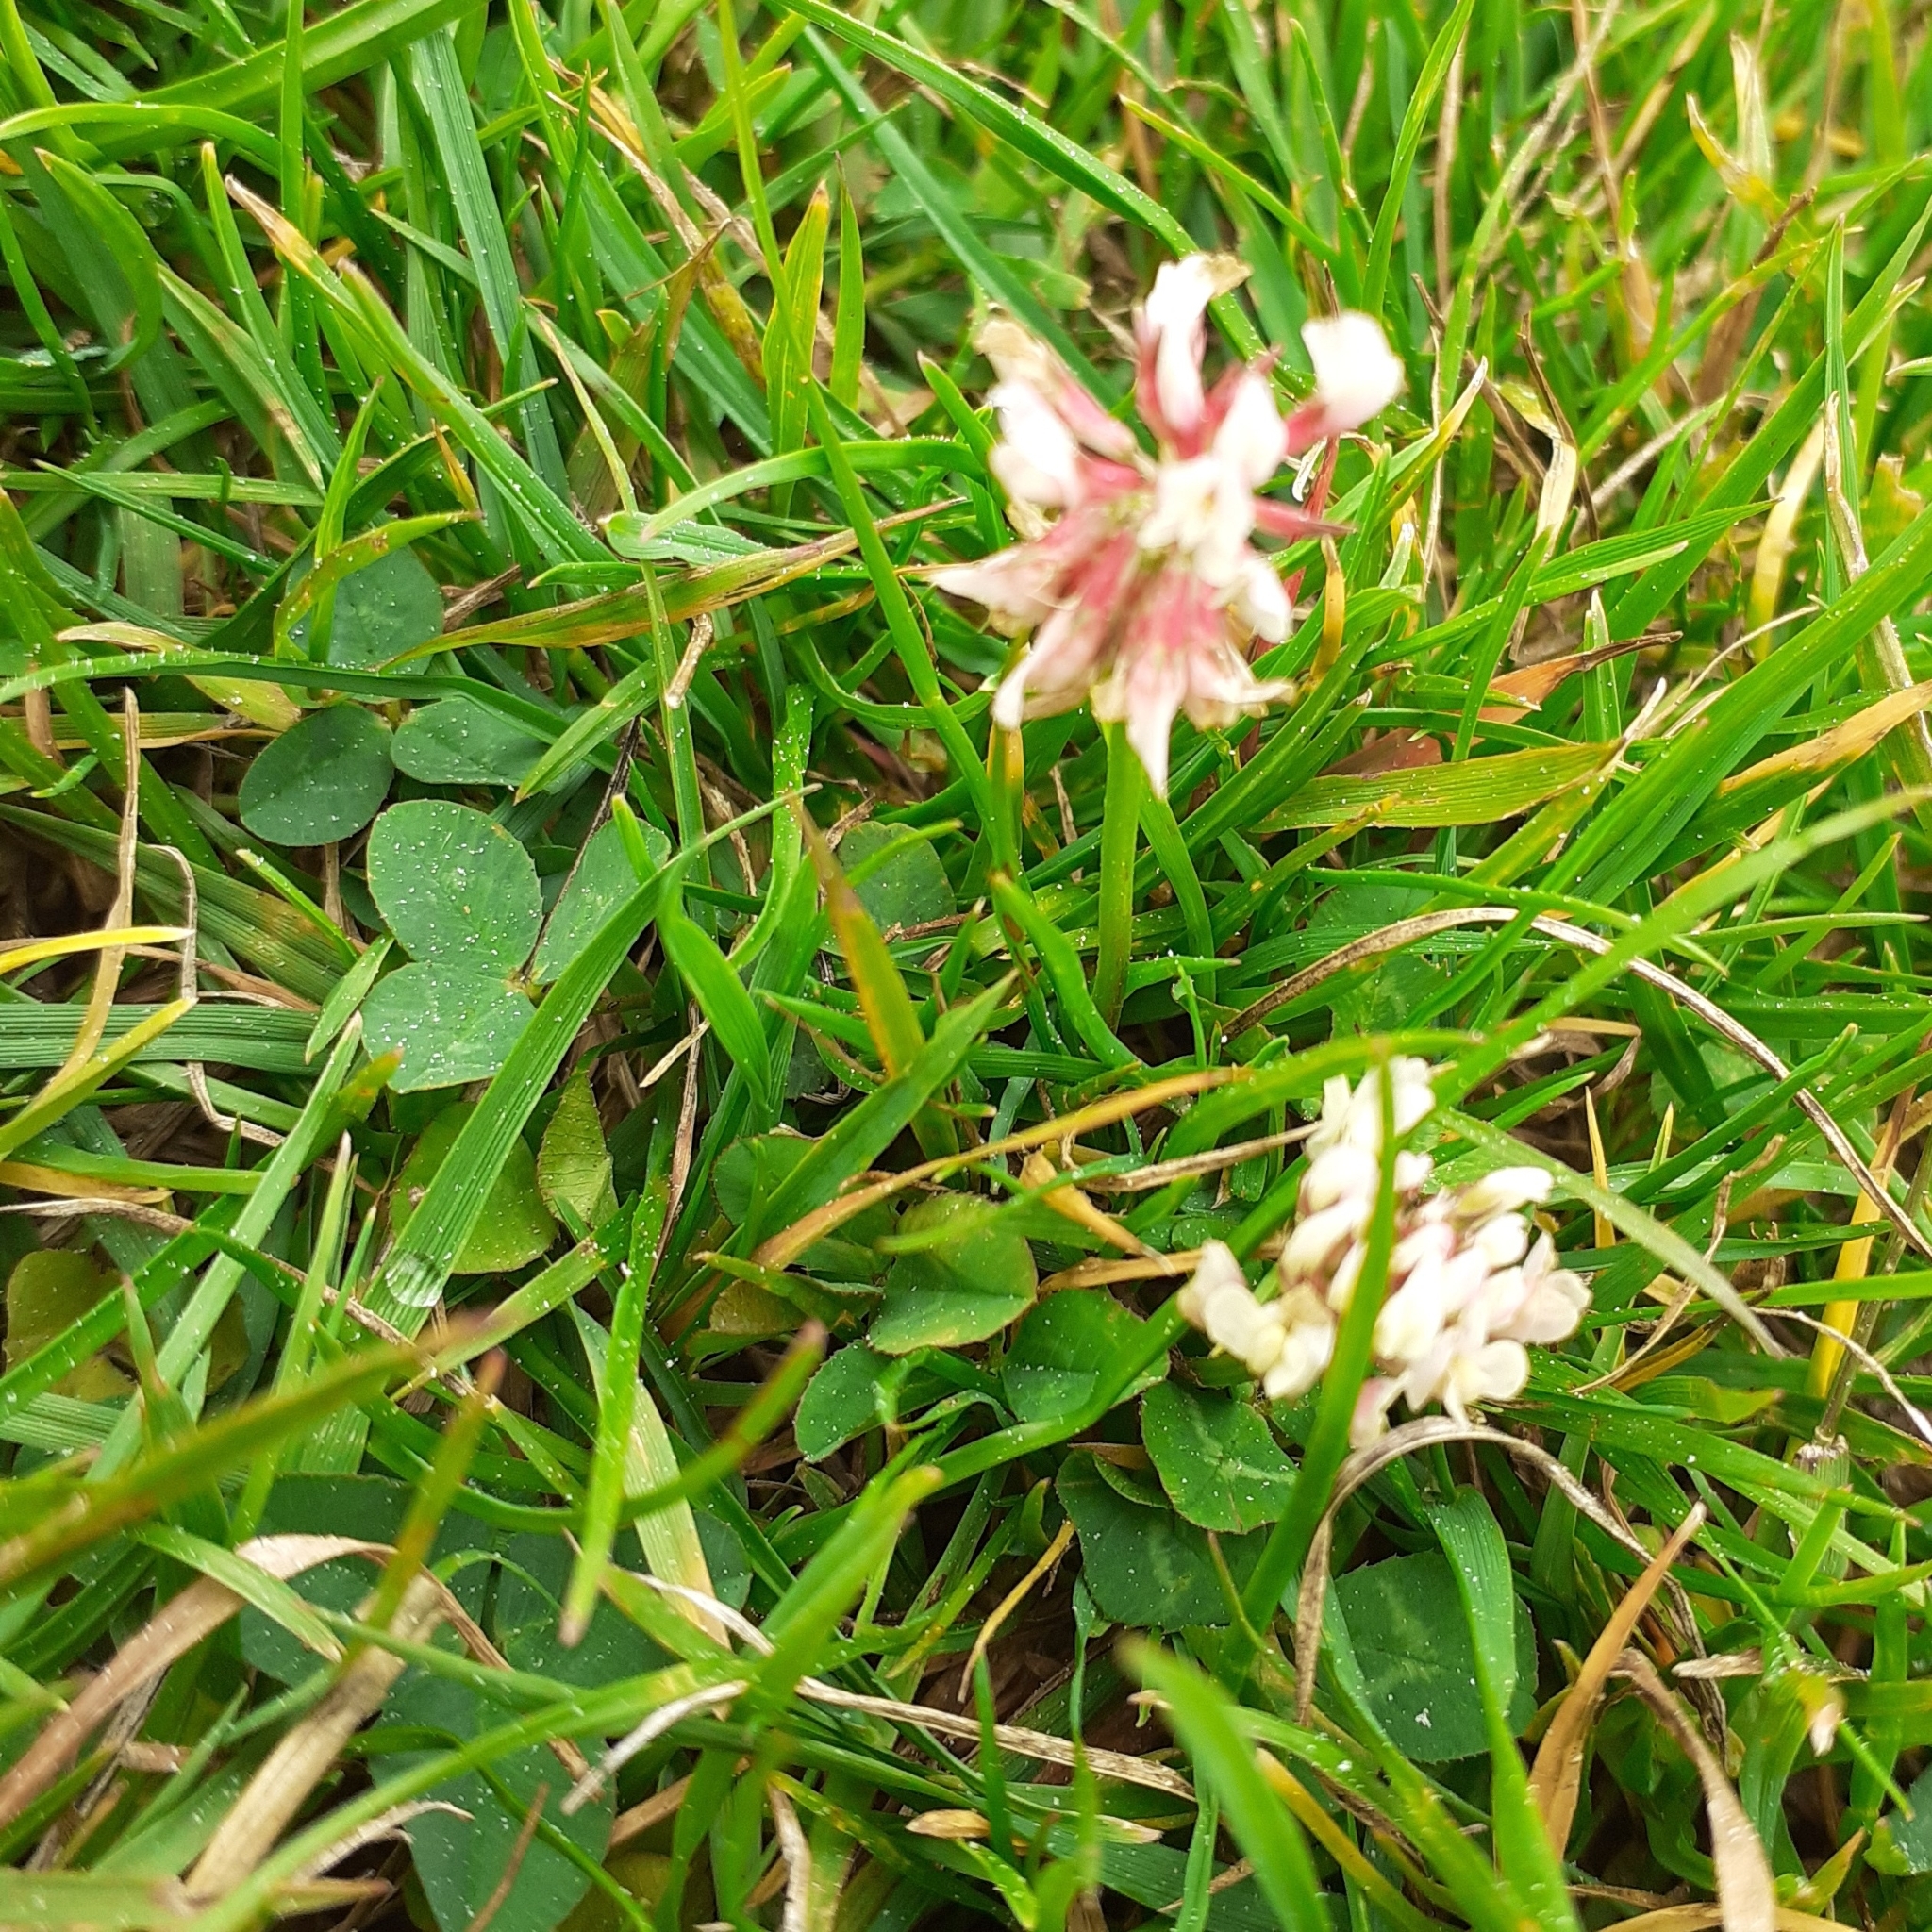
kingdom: Plantae
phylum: Tracheophyta
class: Magnoliopsida
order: Fabales
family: Fabaceae
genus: Trifolium
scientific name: Trifolium repens
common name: White clover
